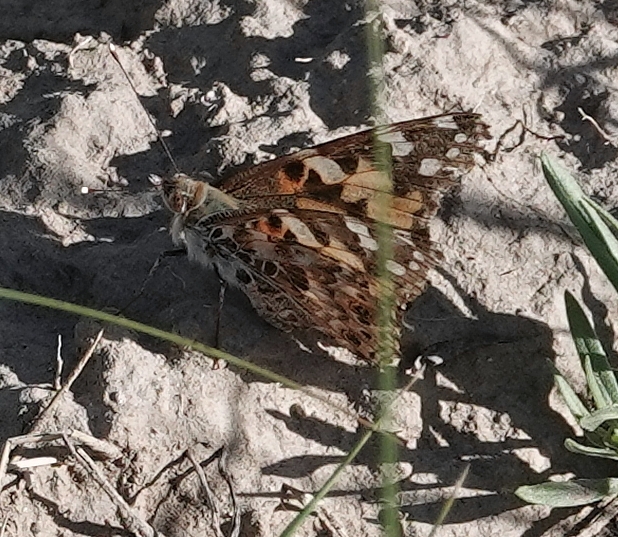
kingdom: Animalia
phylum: Arthropoda
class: Insecta
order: Lepidoptera
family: Nymphalidae
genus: Vanessa
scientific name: Vanessa cardui
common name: Painted lady
